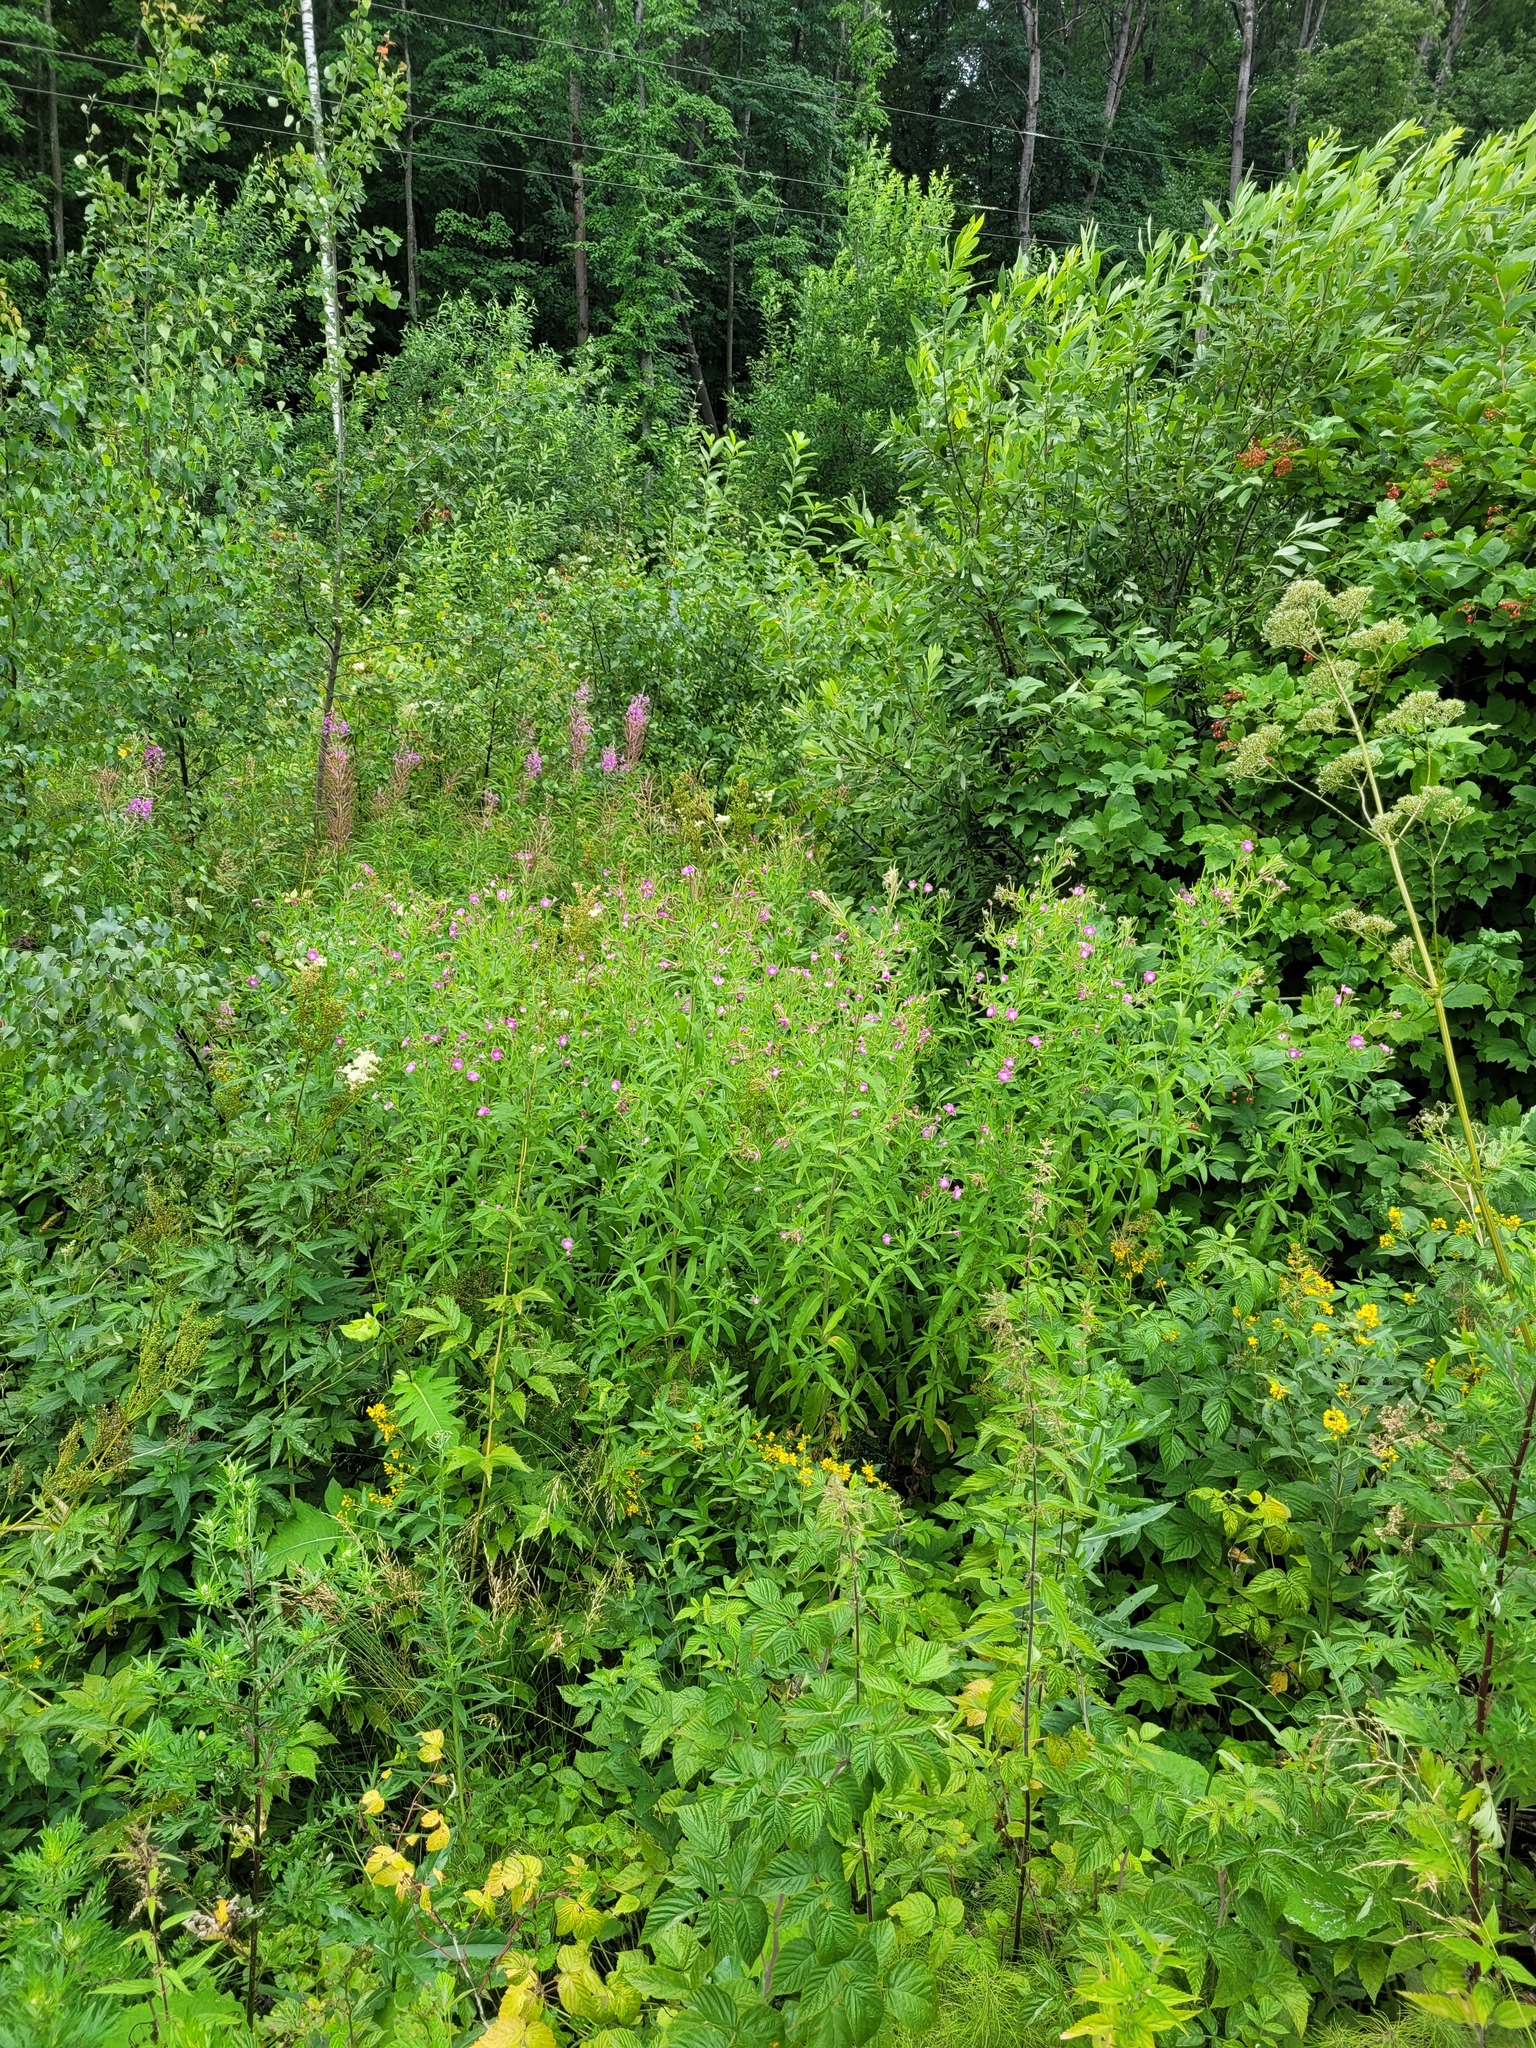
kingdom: Plantae
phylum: Tracheophyta
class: Magnoliopsida
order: Myrtales
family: Onagraceae
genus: Epilobium
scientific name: Epilobium hirsutum
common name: Great willowherb
